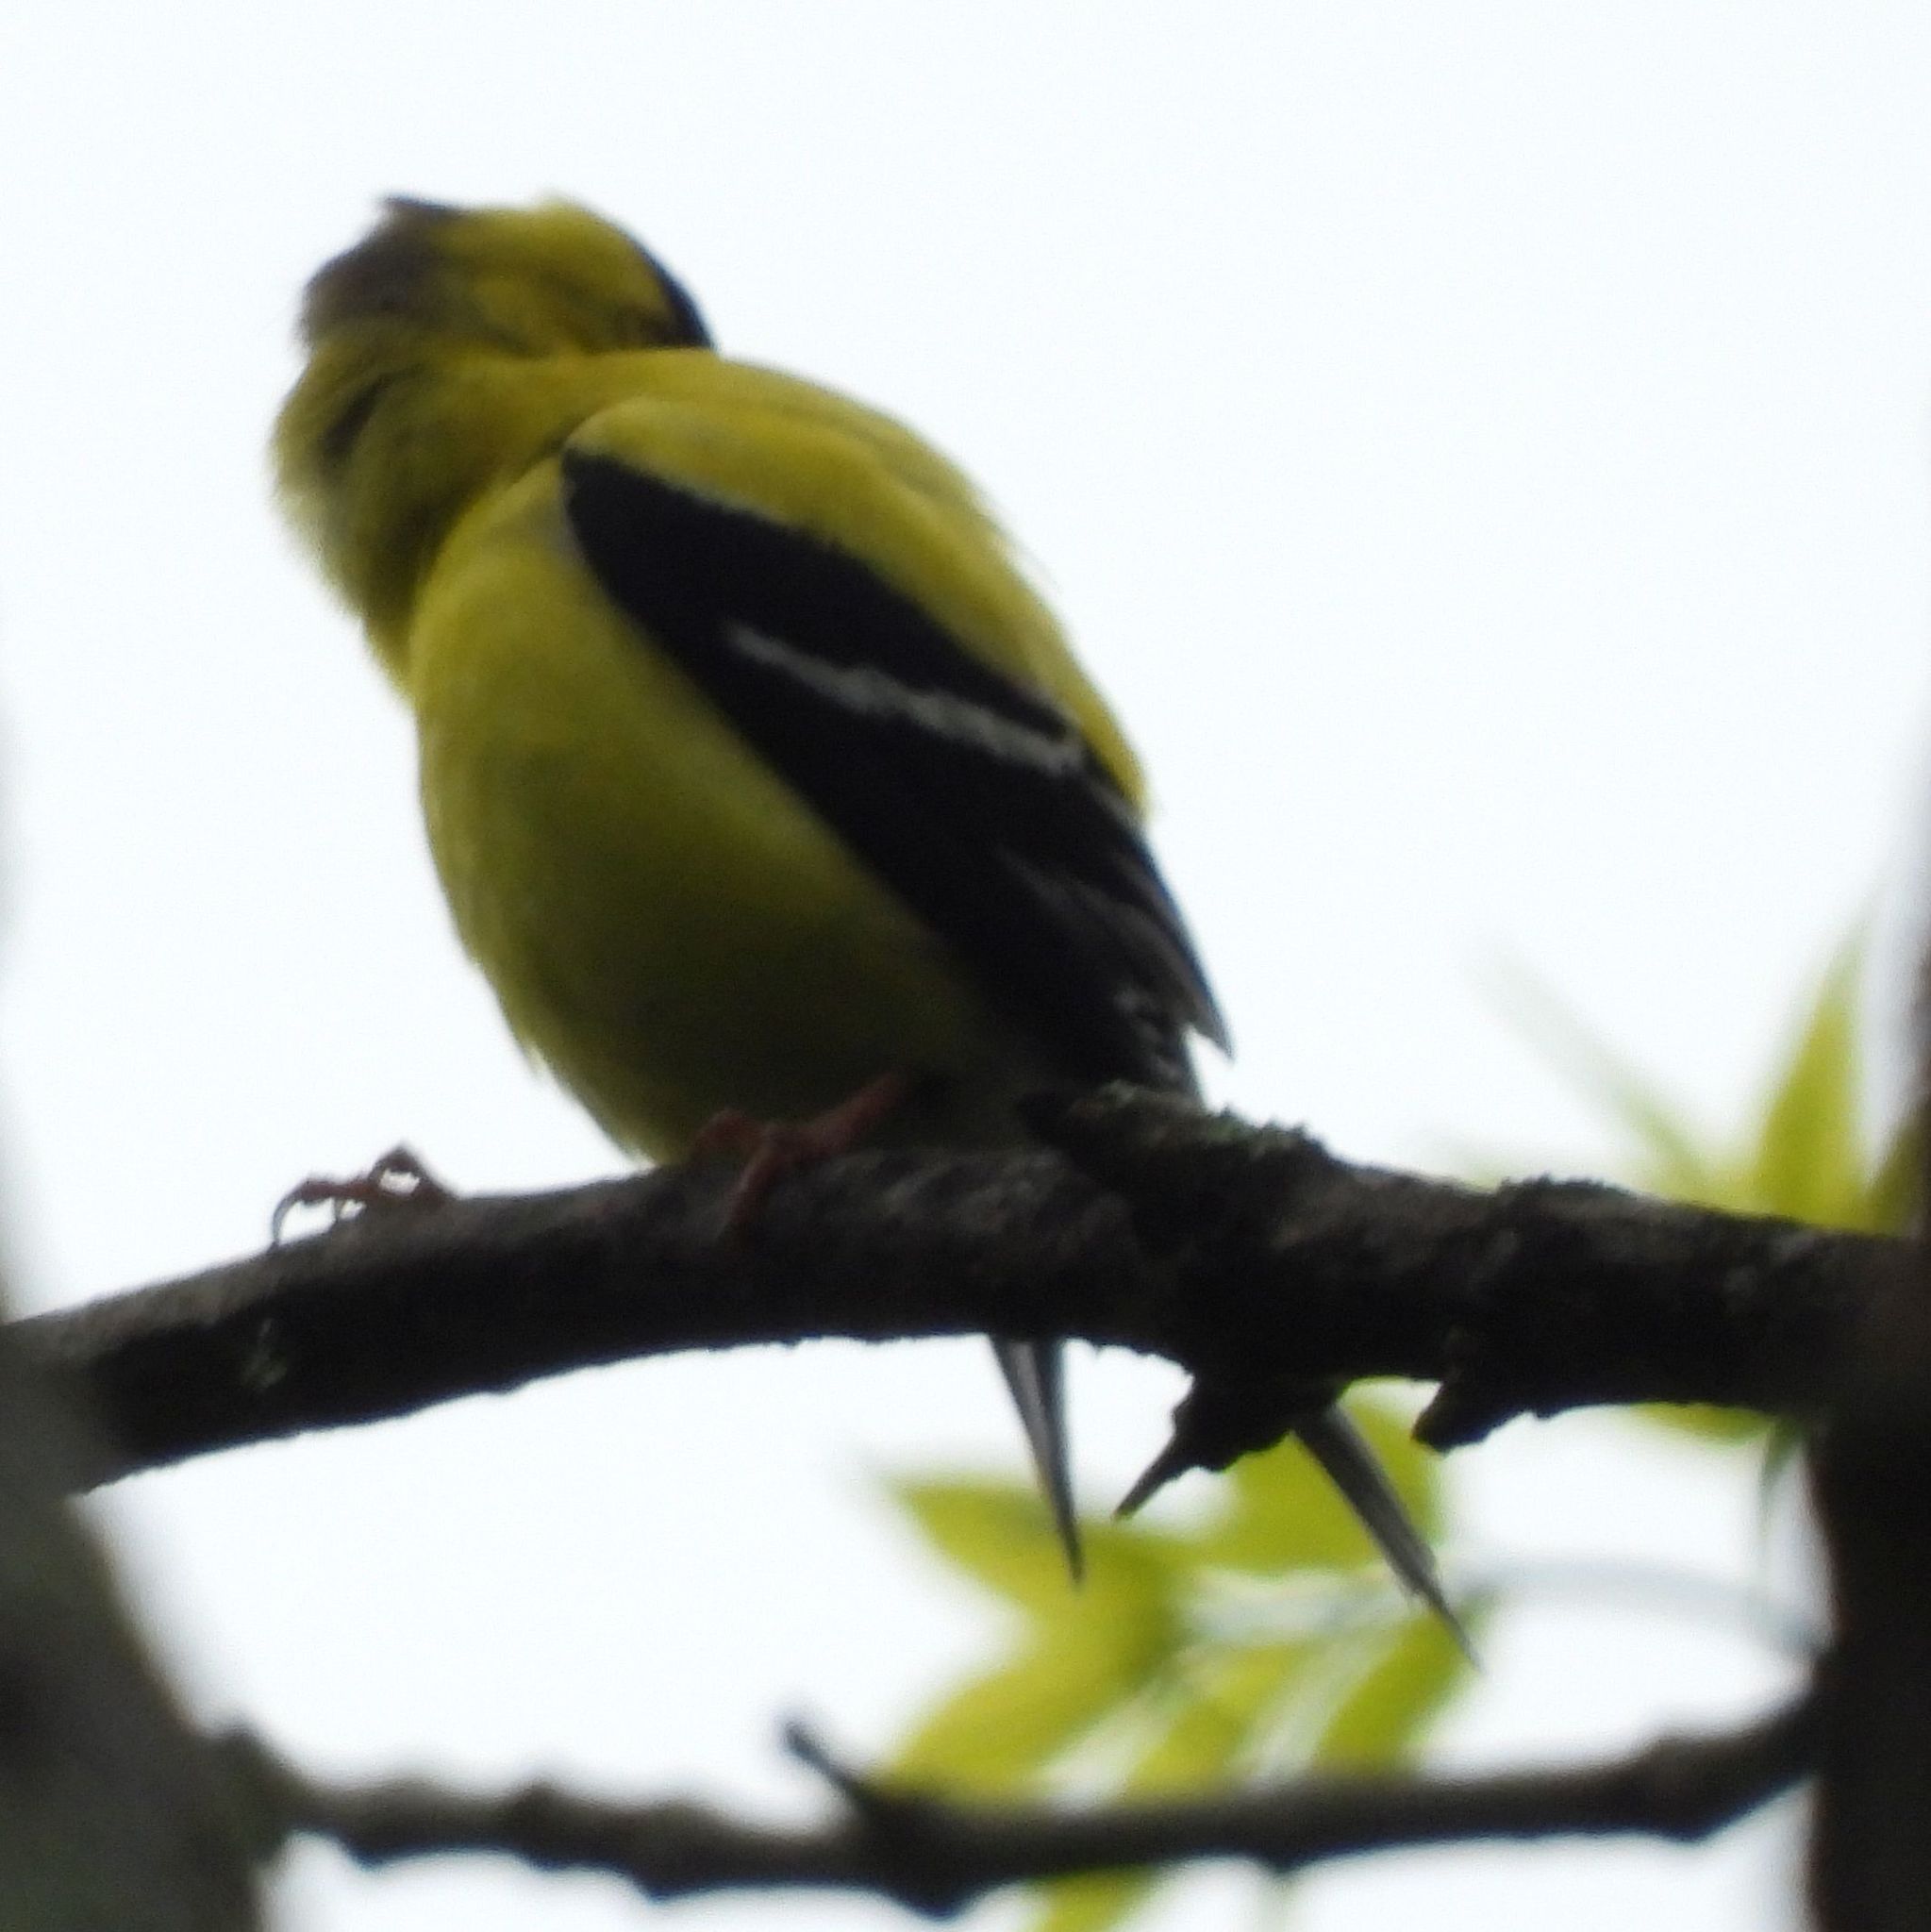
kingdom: Animalia
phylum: Chordata
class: Aves
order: Passeriformes
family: Fringillidae
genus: Spinus
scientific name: Spinus tristis
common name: American goldfinch
